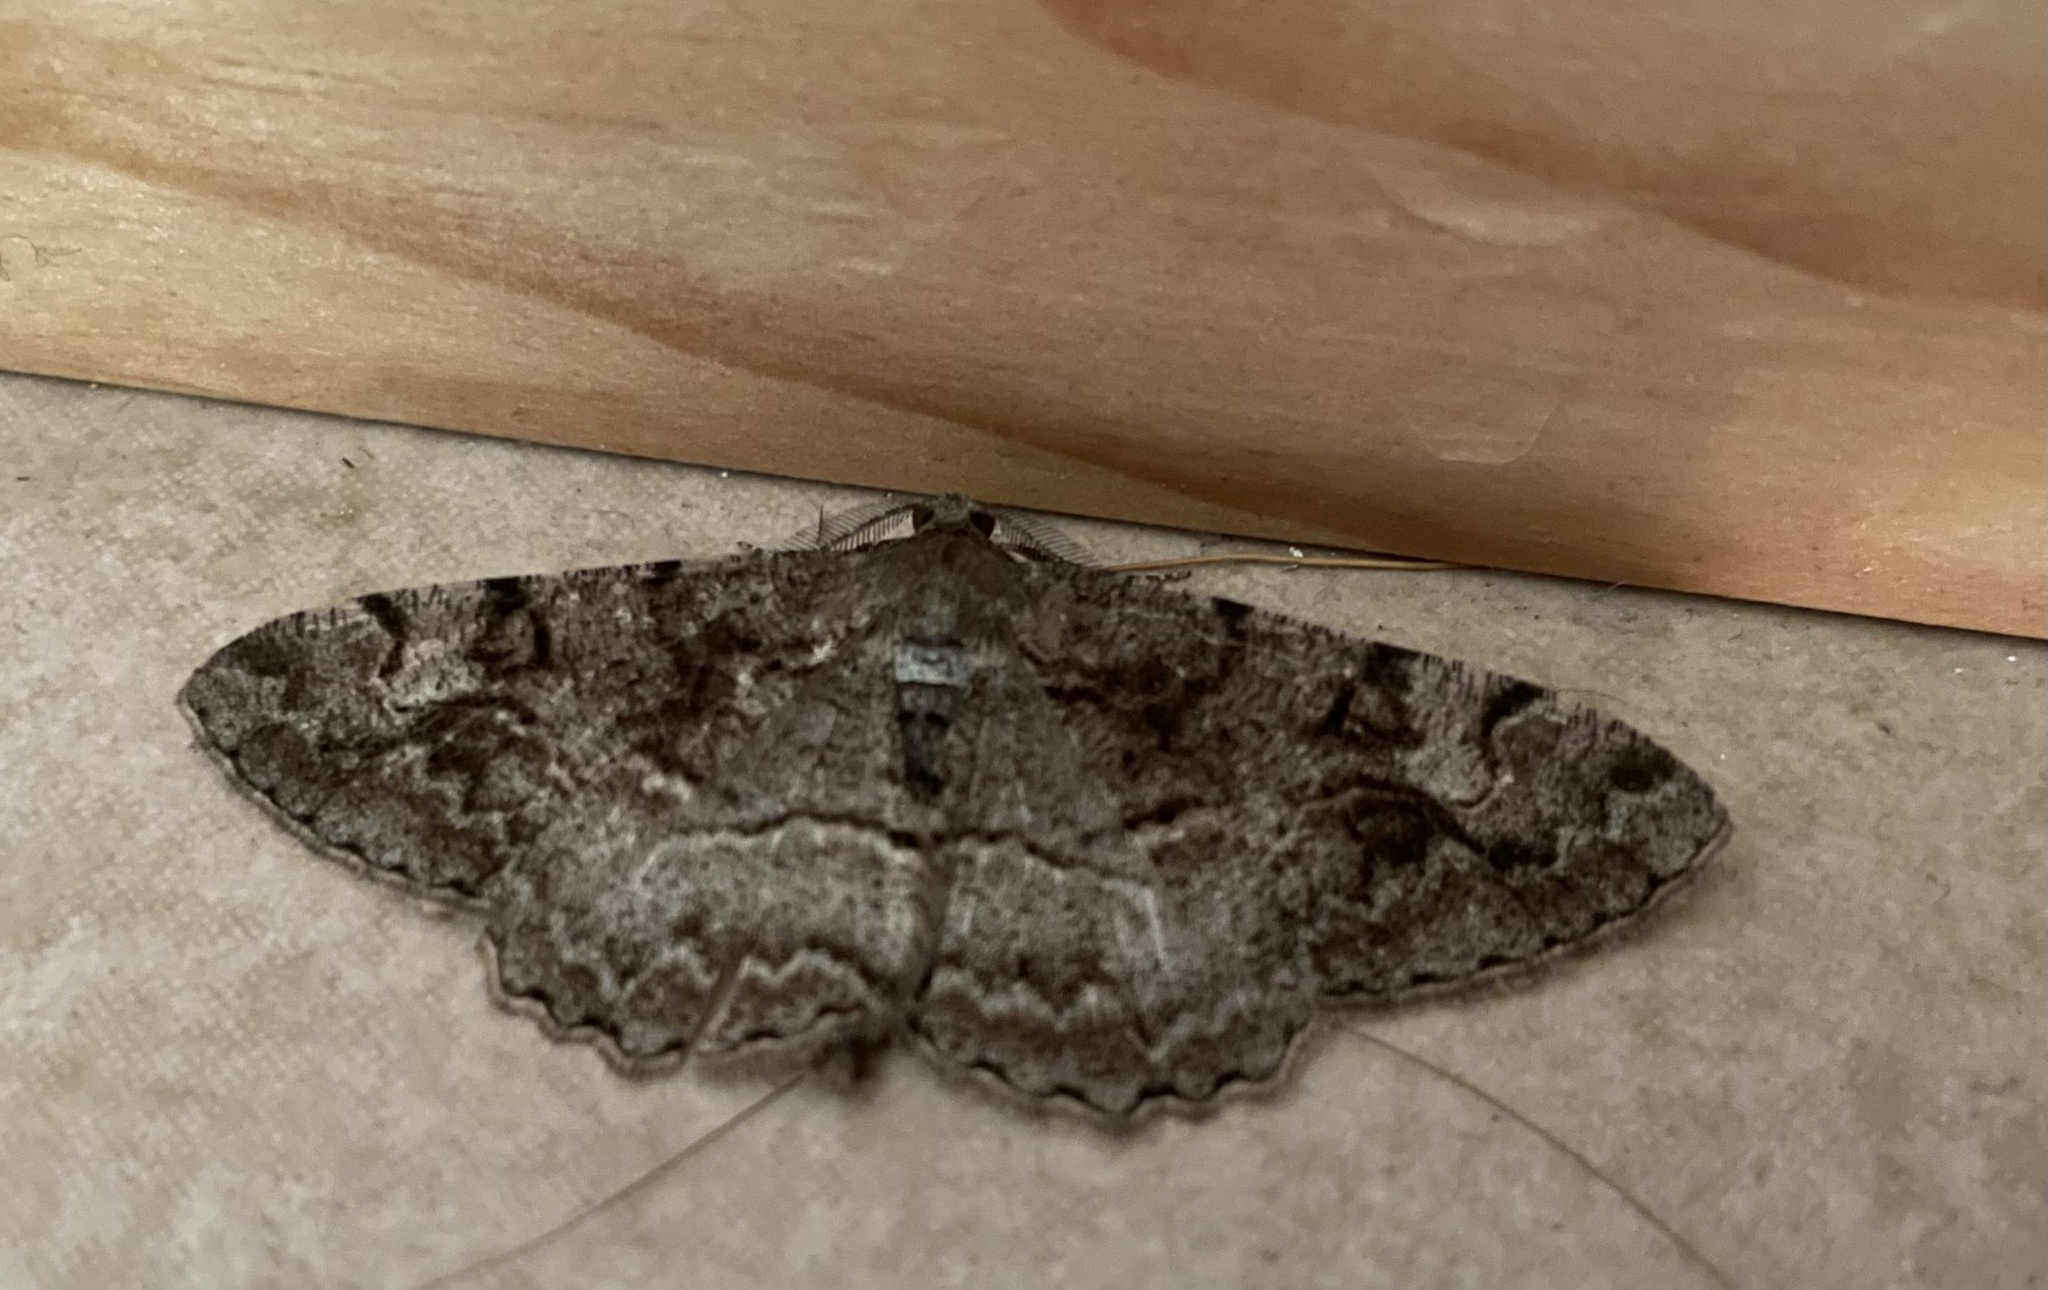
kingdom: Animalia
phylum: Arthropoda
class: Insecta
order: Lepidoptera
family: Geometridae
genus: Alcis
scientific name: Alcis repandata
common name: Mottled beauty
